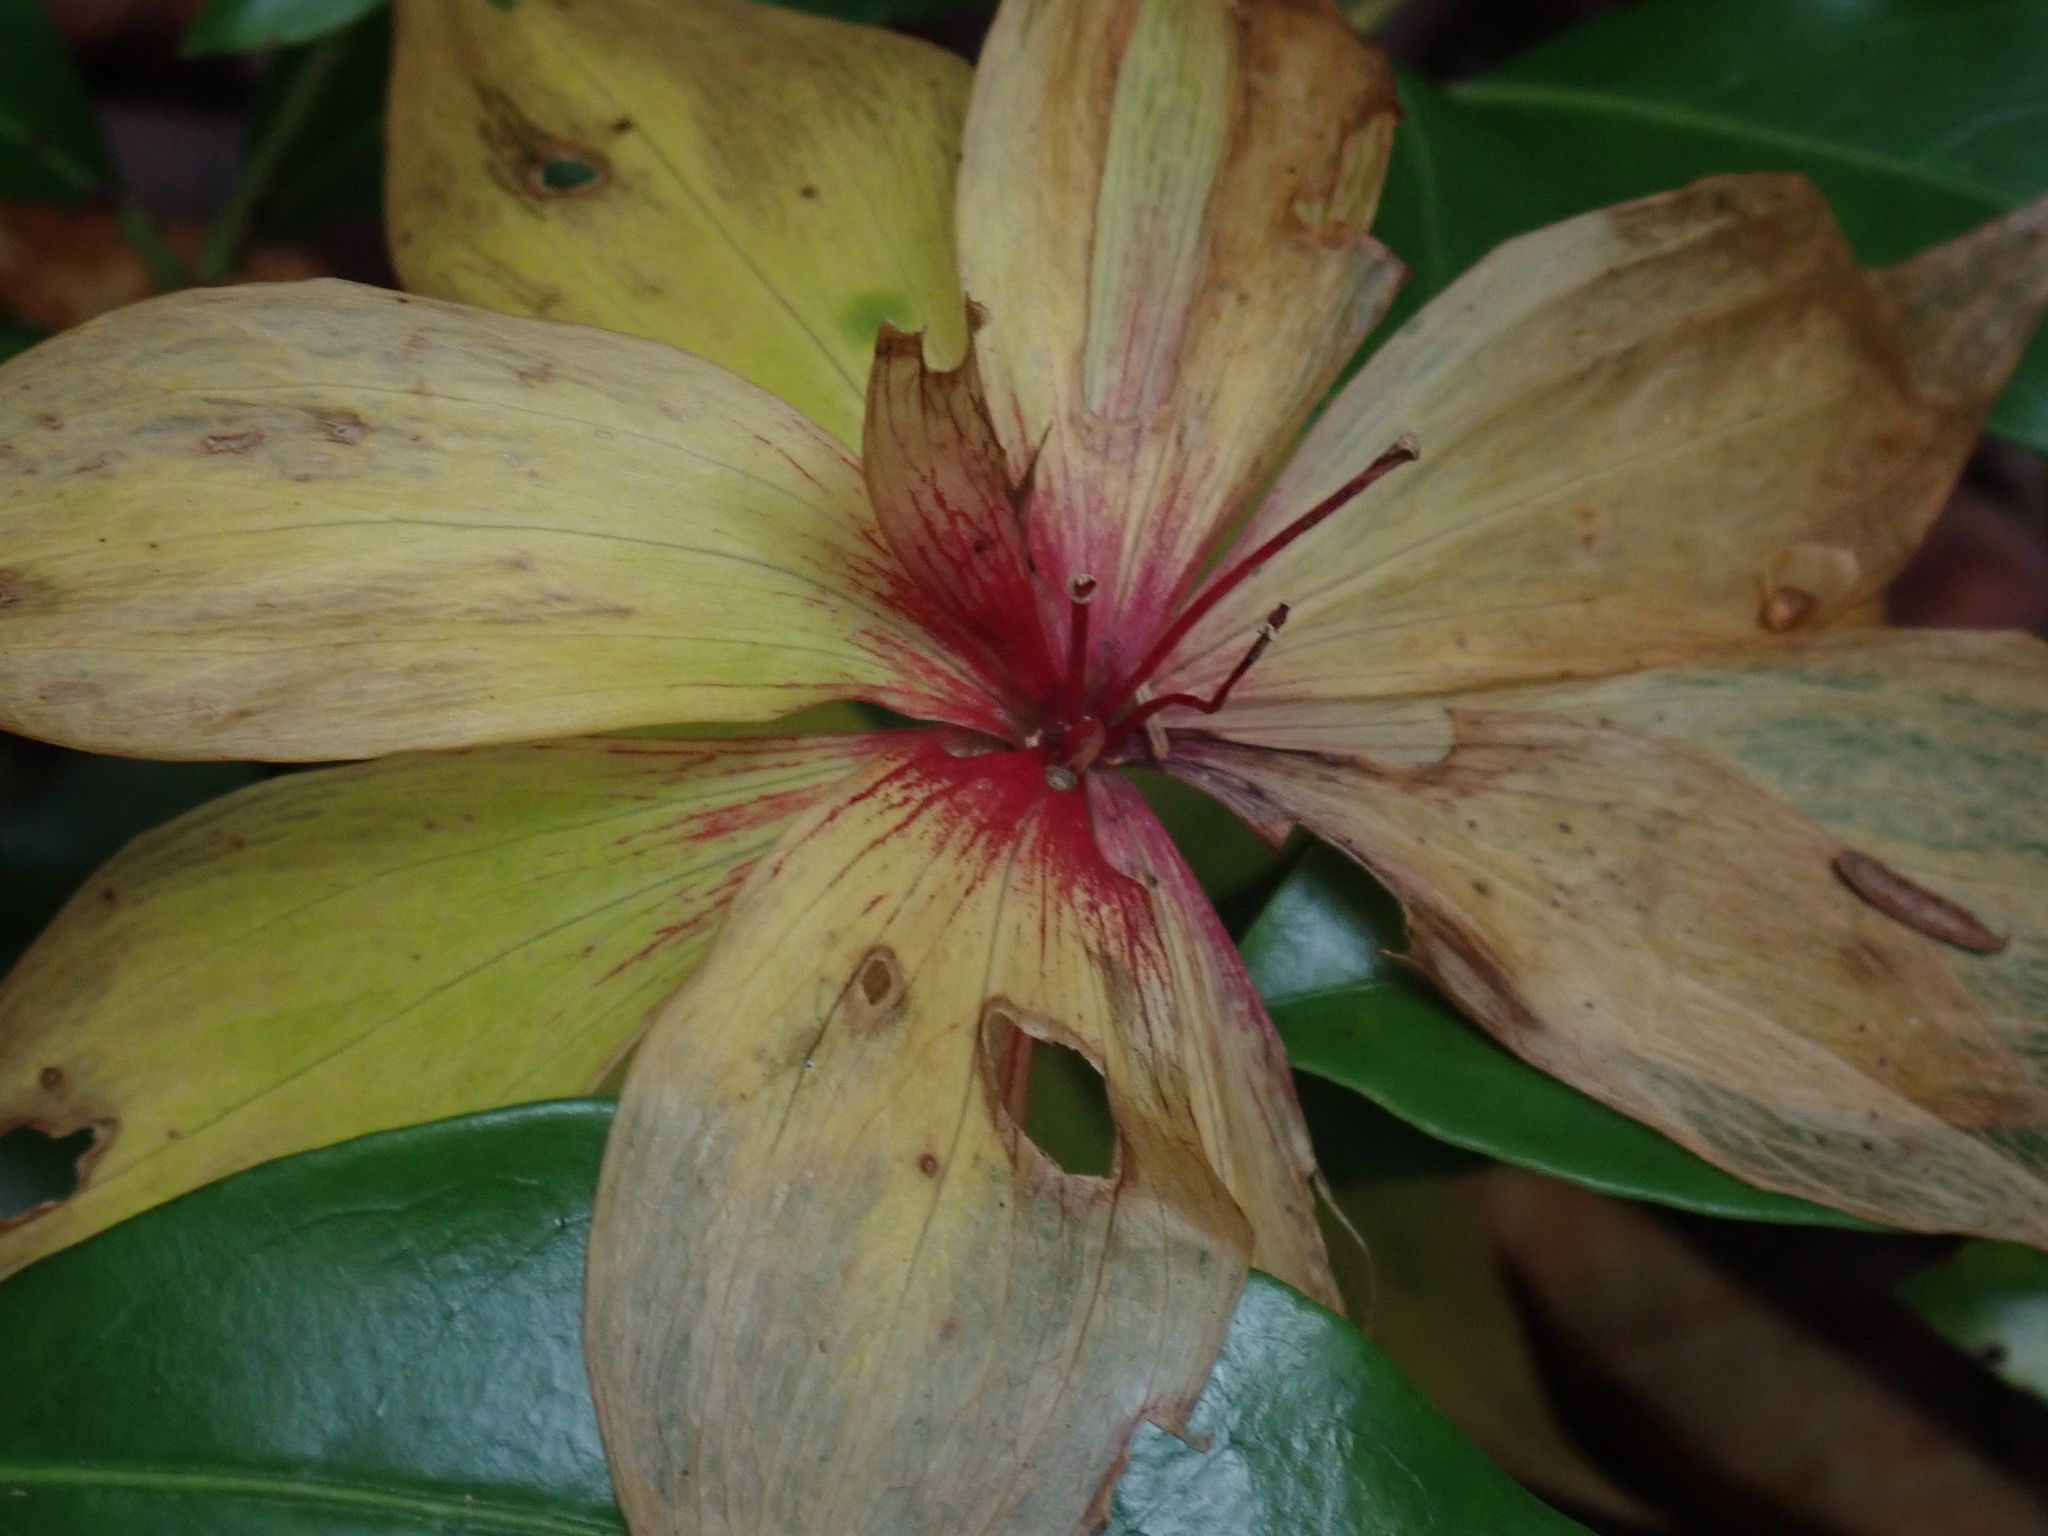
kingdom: Plantae
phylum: Tracheophyta
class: Liliopsida
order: Liliales
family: Liliaceae
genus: Medeola
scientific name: Medeola virginiana
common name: Indian cucumber-root
